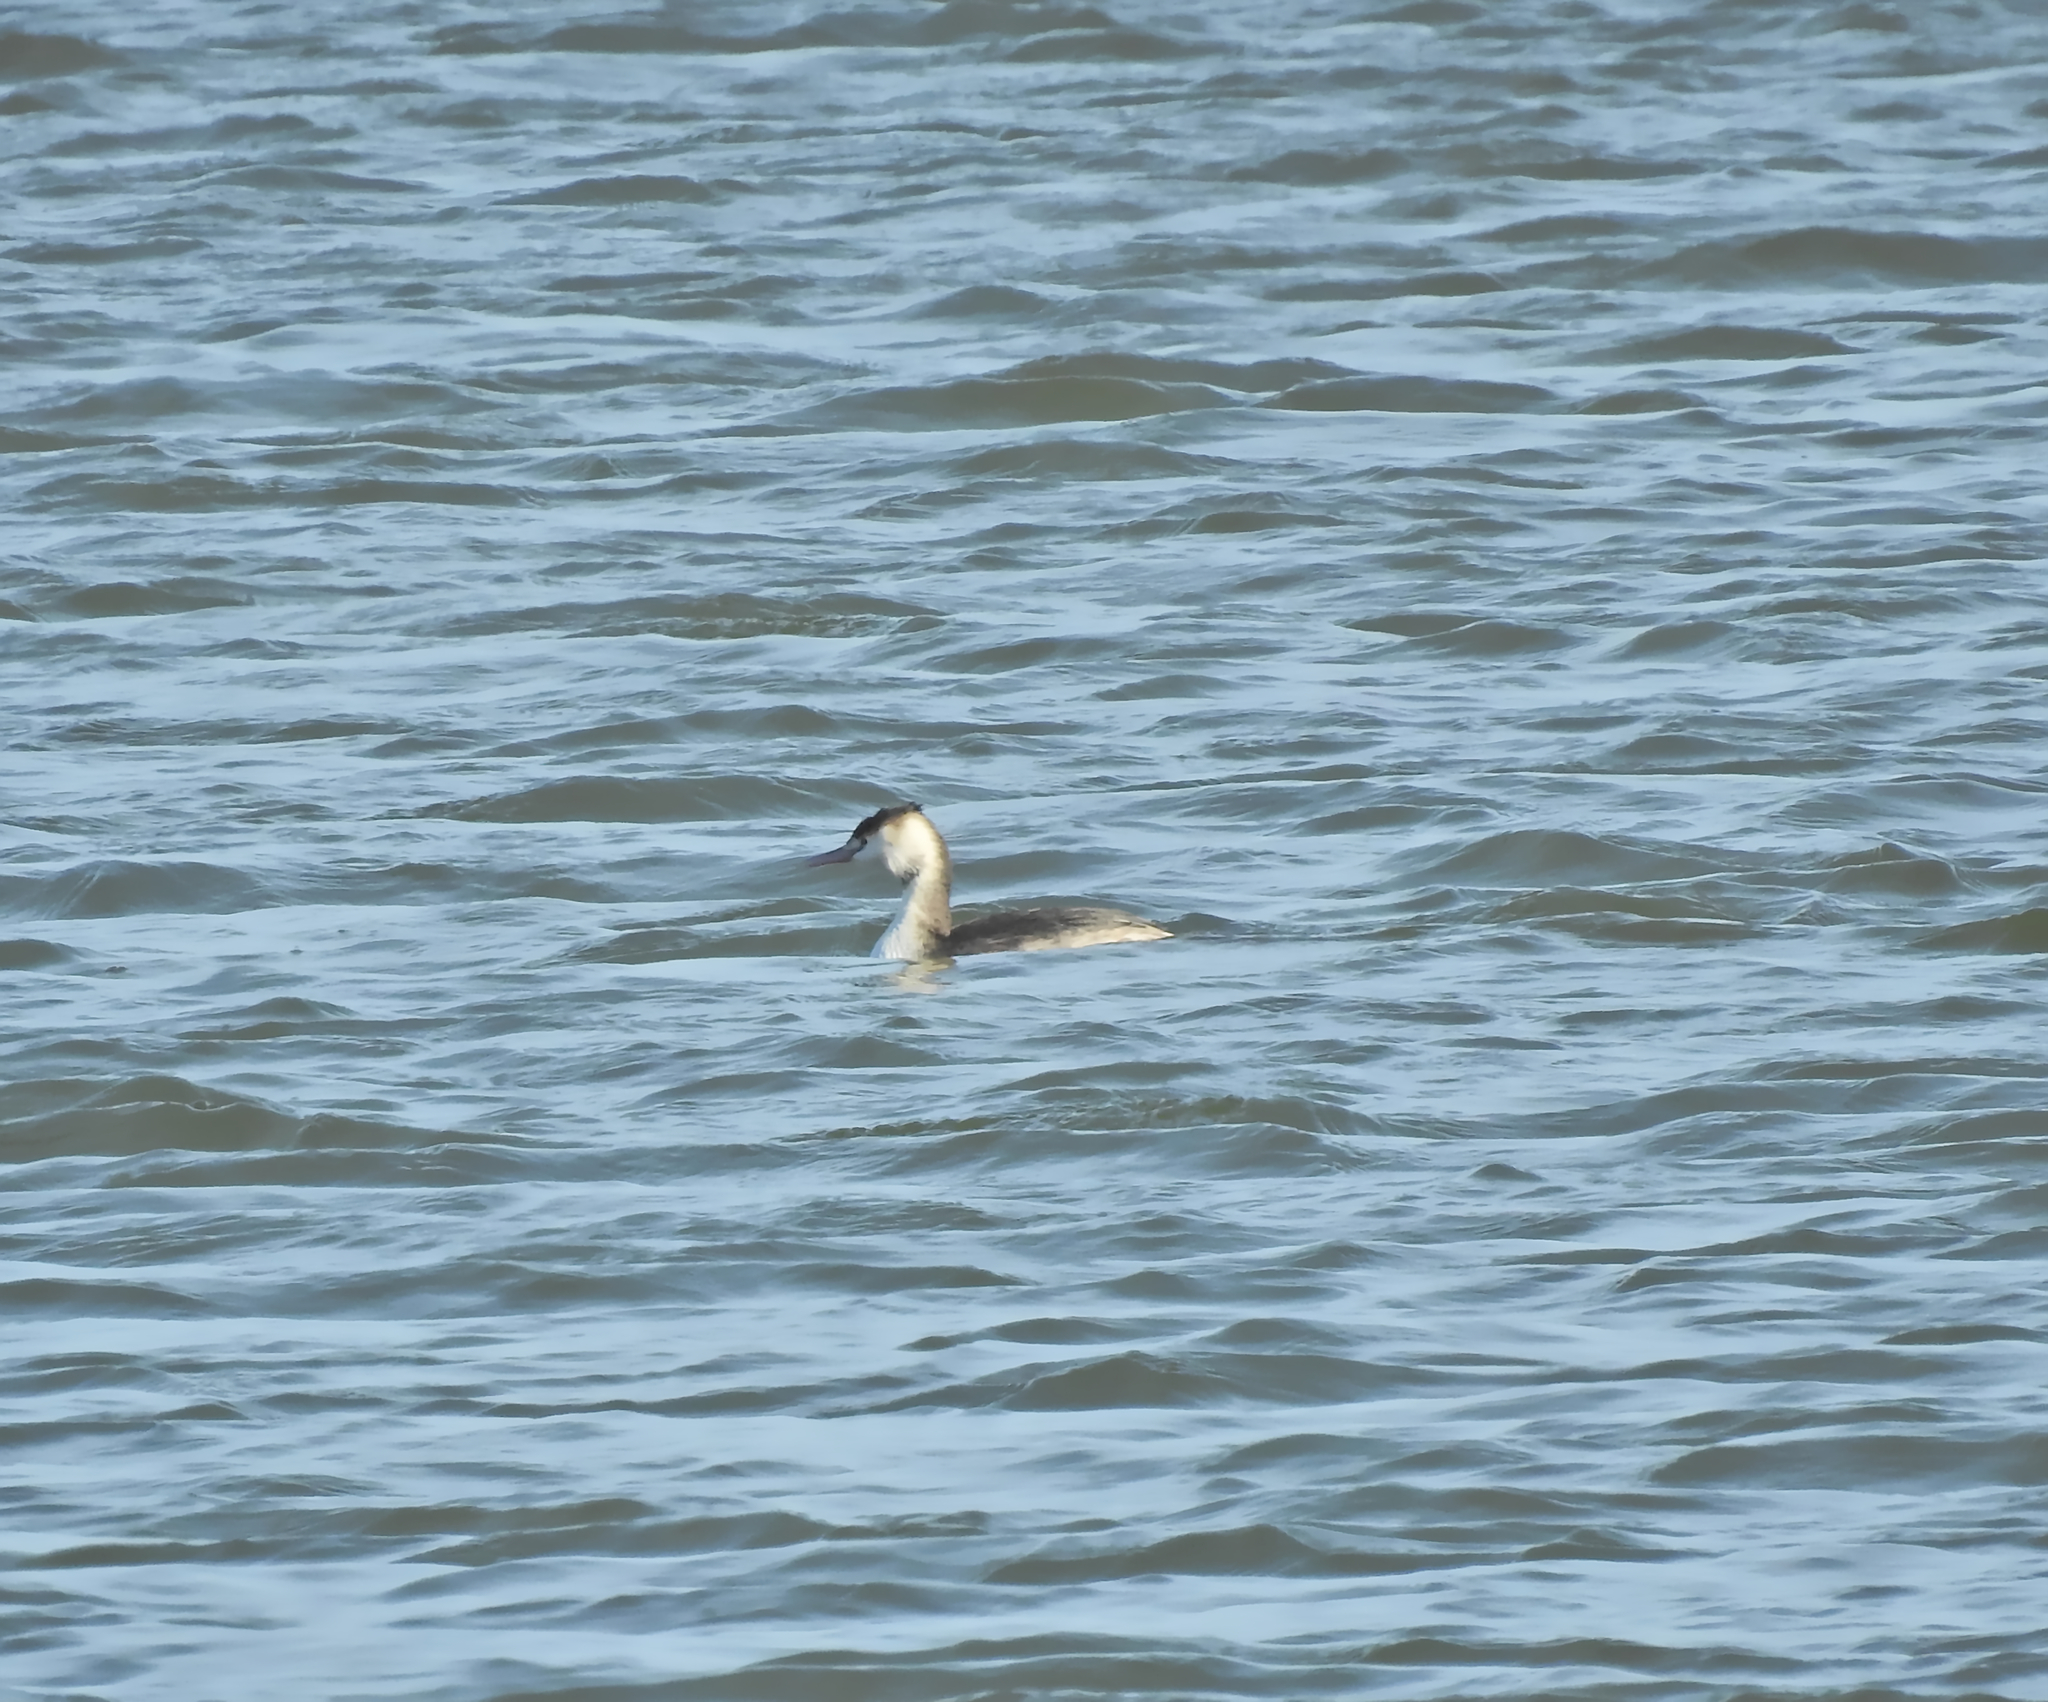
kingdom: Animalia
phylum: Chordata
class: Aves
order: Podicipediformes
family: Podicipedidae
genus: Podiceps
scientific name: Podiceps cristatus
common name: Great crested grebe
